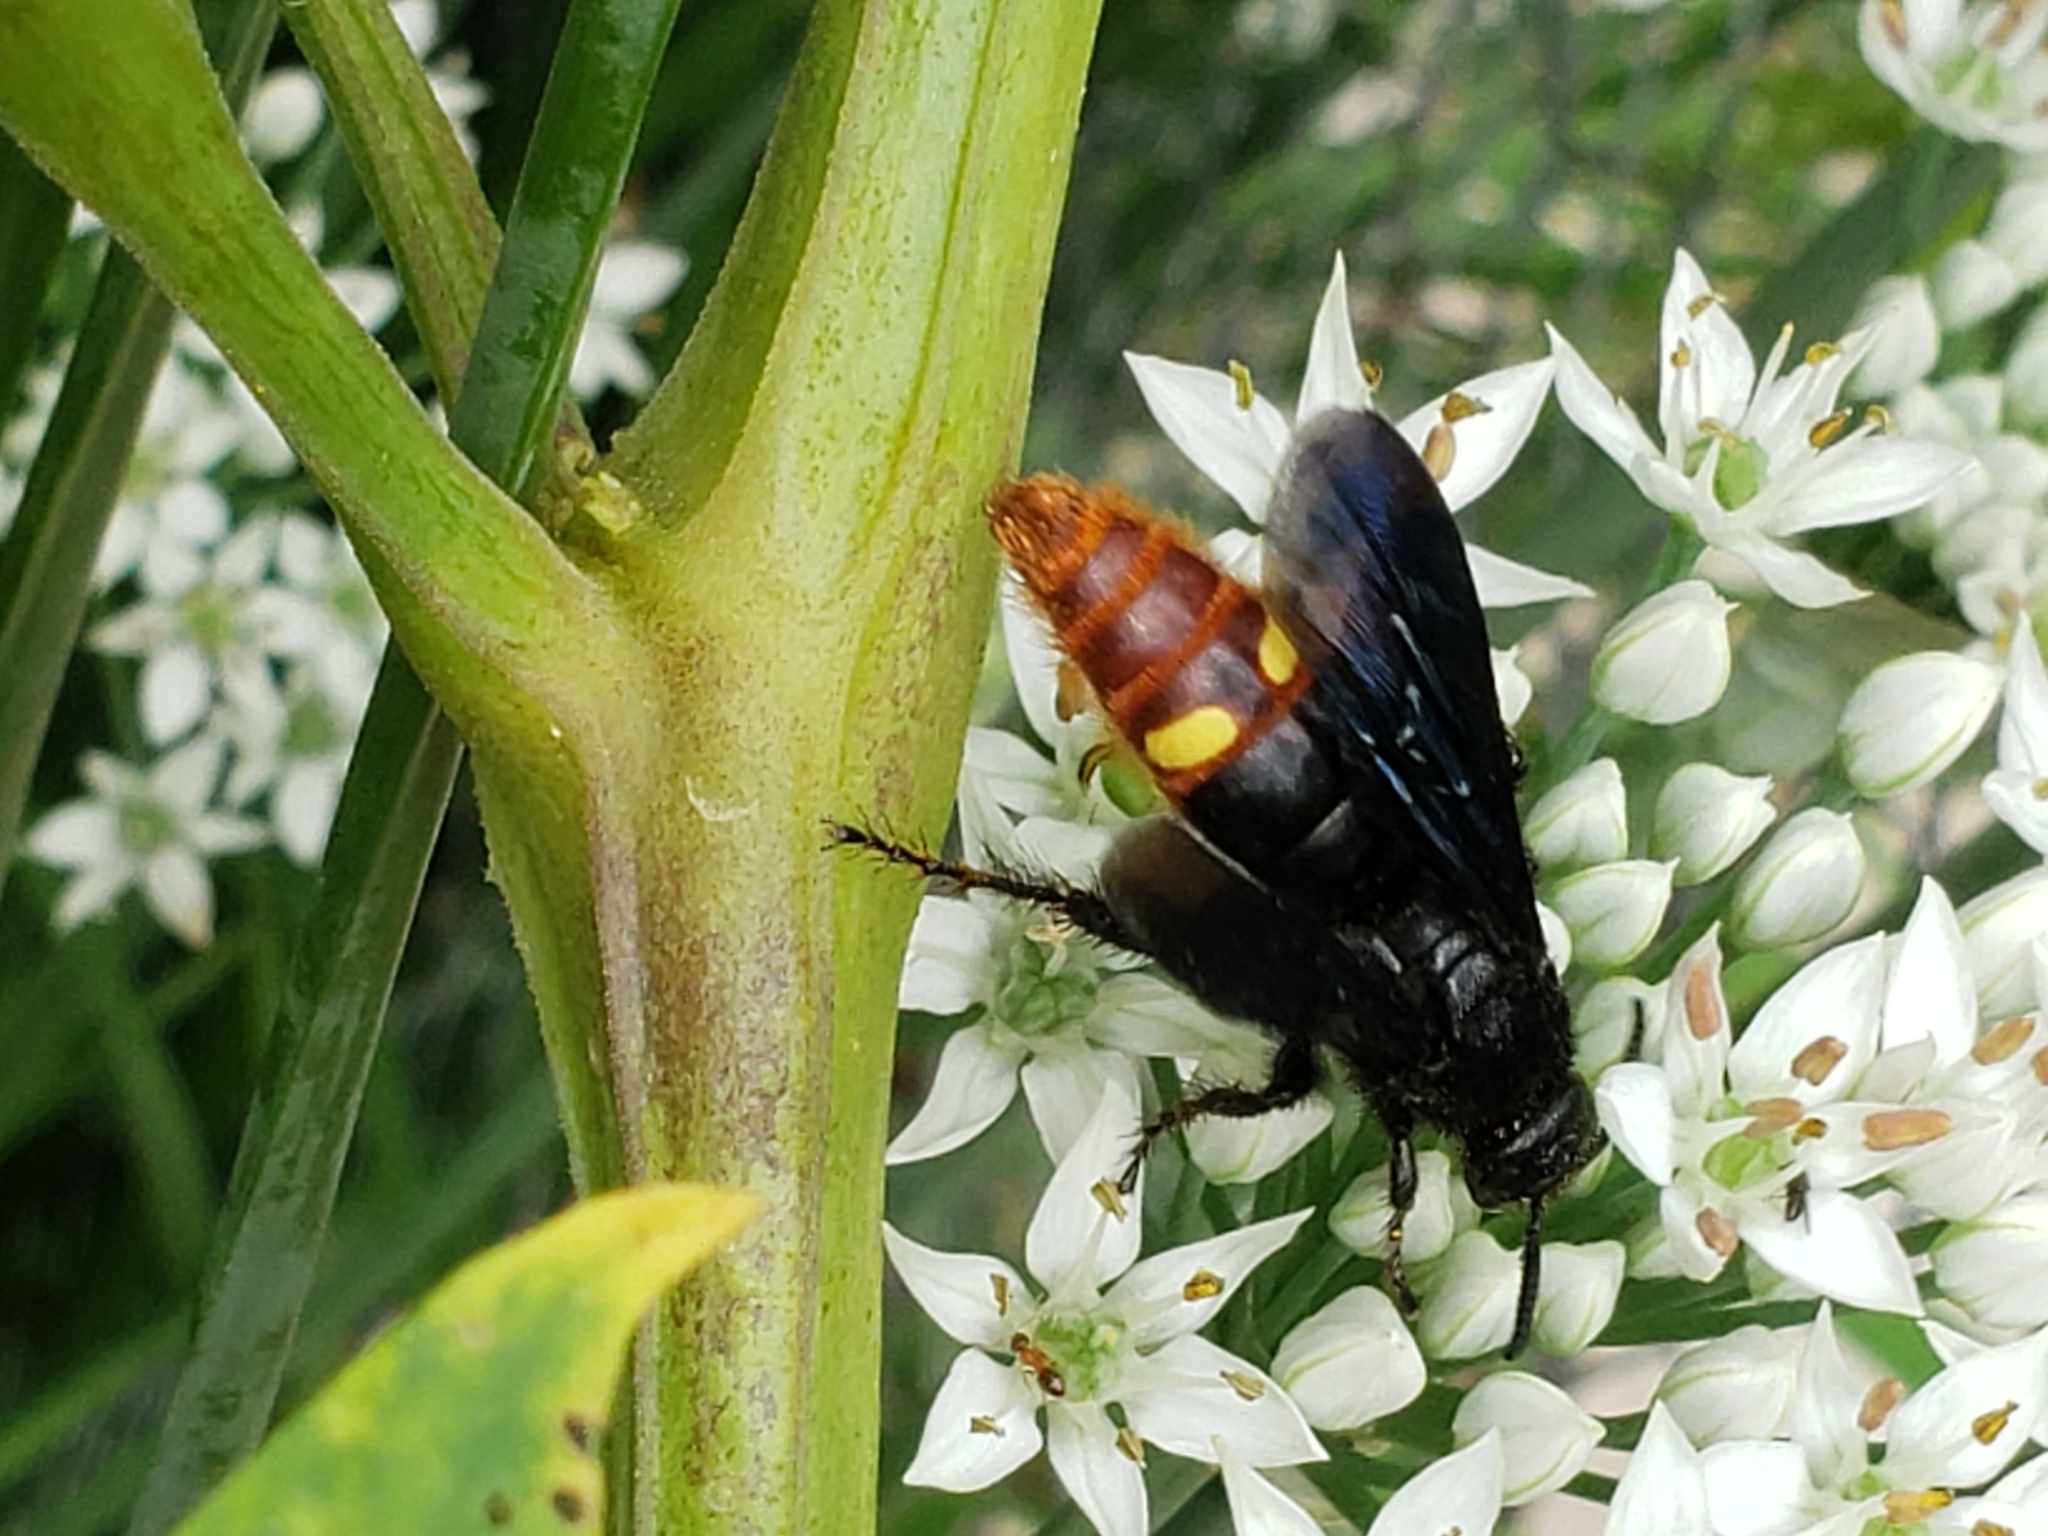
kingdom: Animalia
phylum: Arthropoda
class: Insecta
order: Hymenoptera
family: Scoliidae
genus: Scolia
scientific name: Scolia dubia
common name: Blue-winged scoliid wasp
